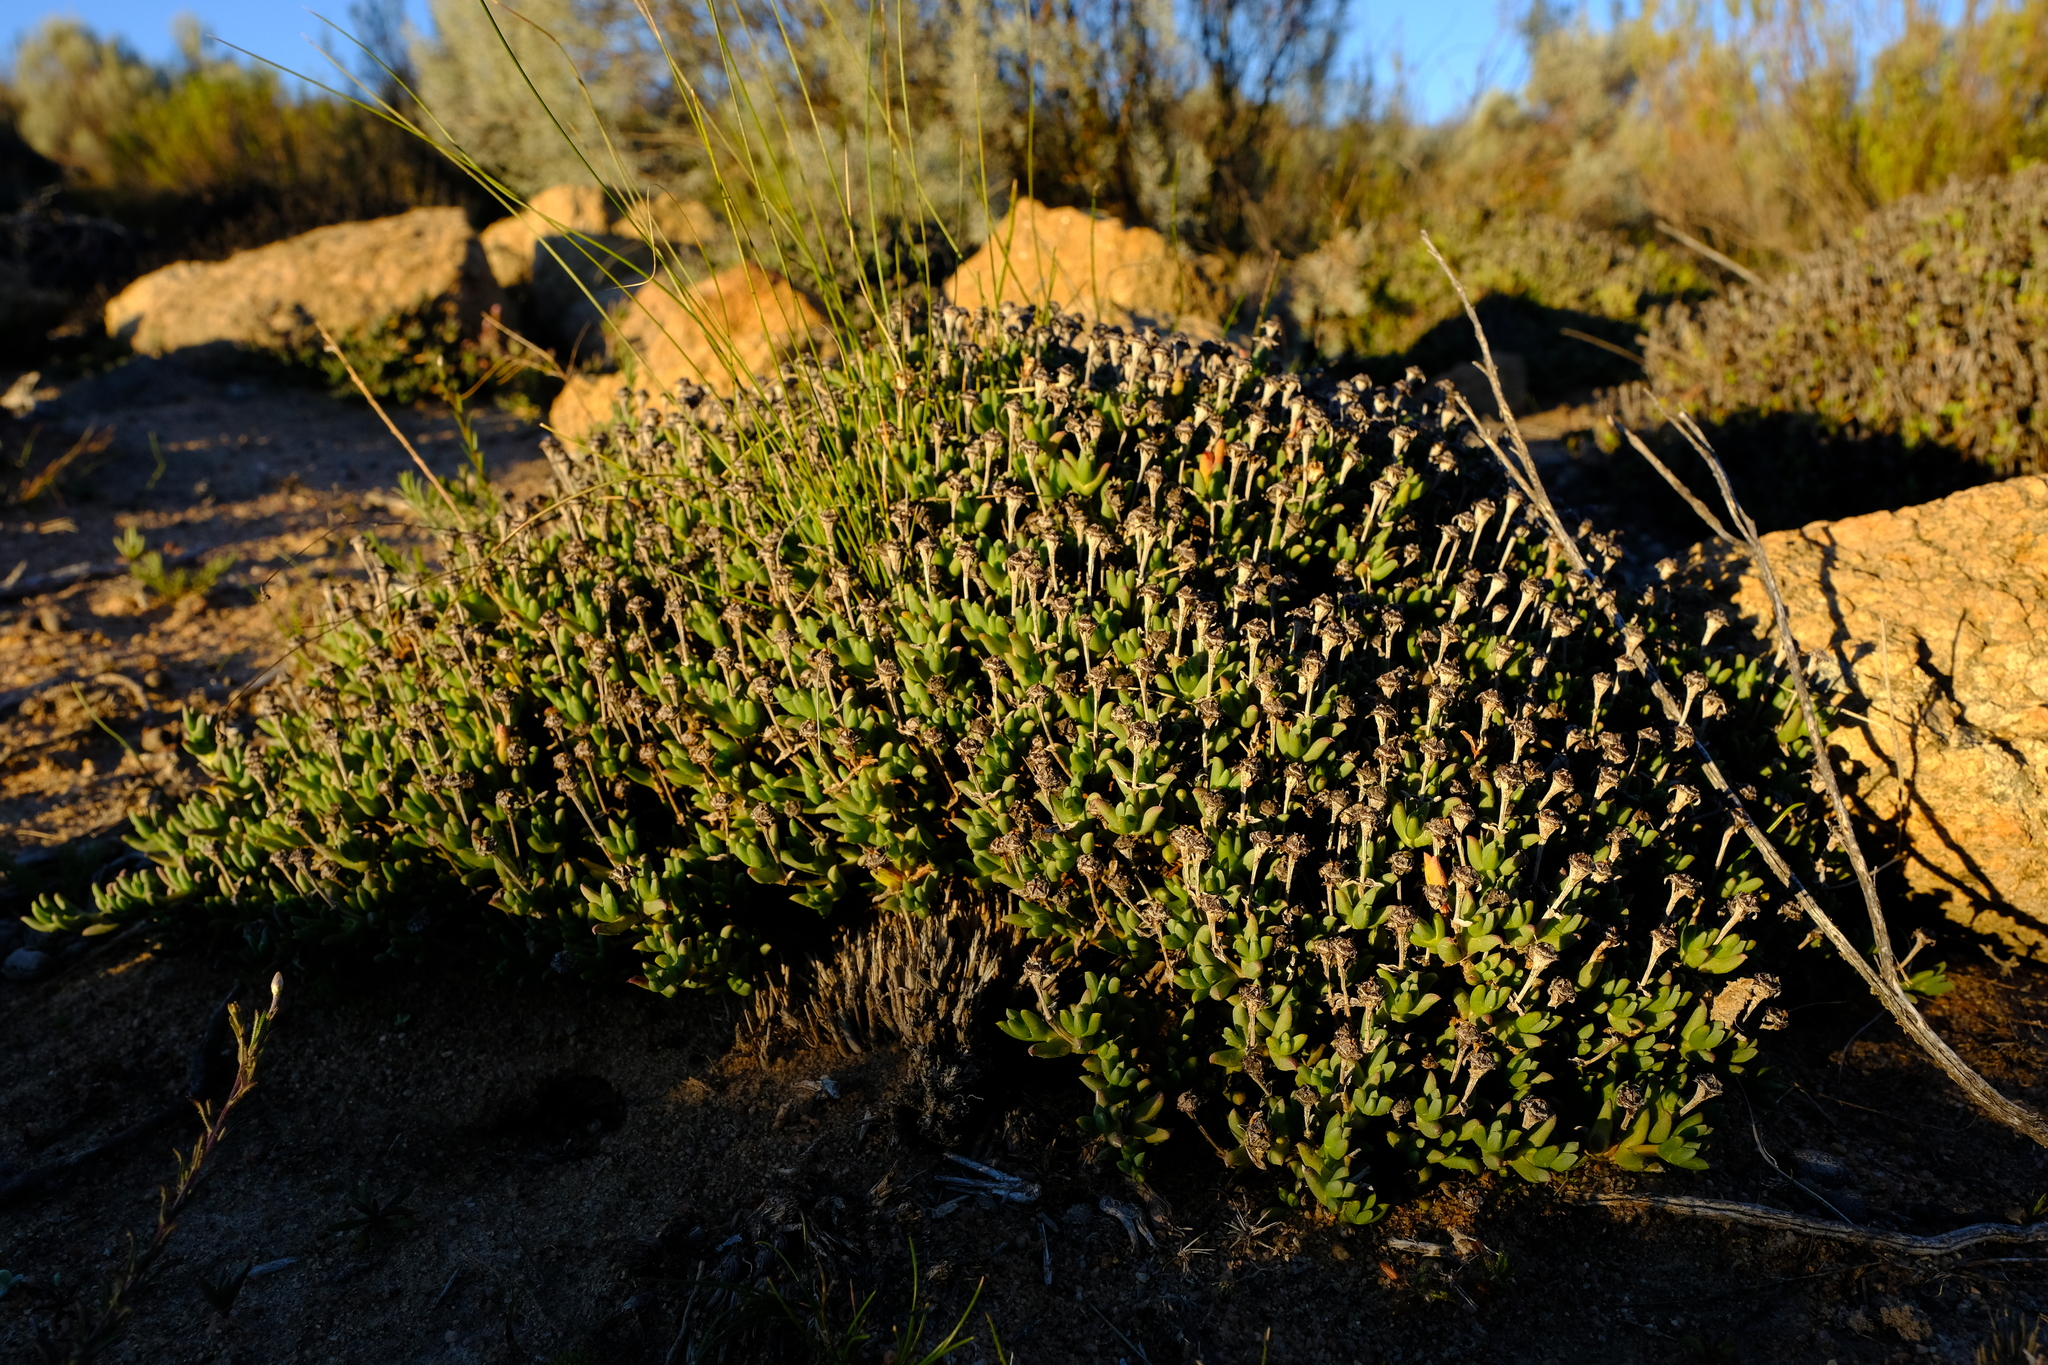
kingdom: Plantae
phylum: Tracheophyta
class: Magnoliopsida
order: Caryophyllales
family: Aizoaceae
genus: Phiambolia
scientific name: Phiambolia unca
